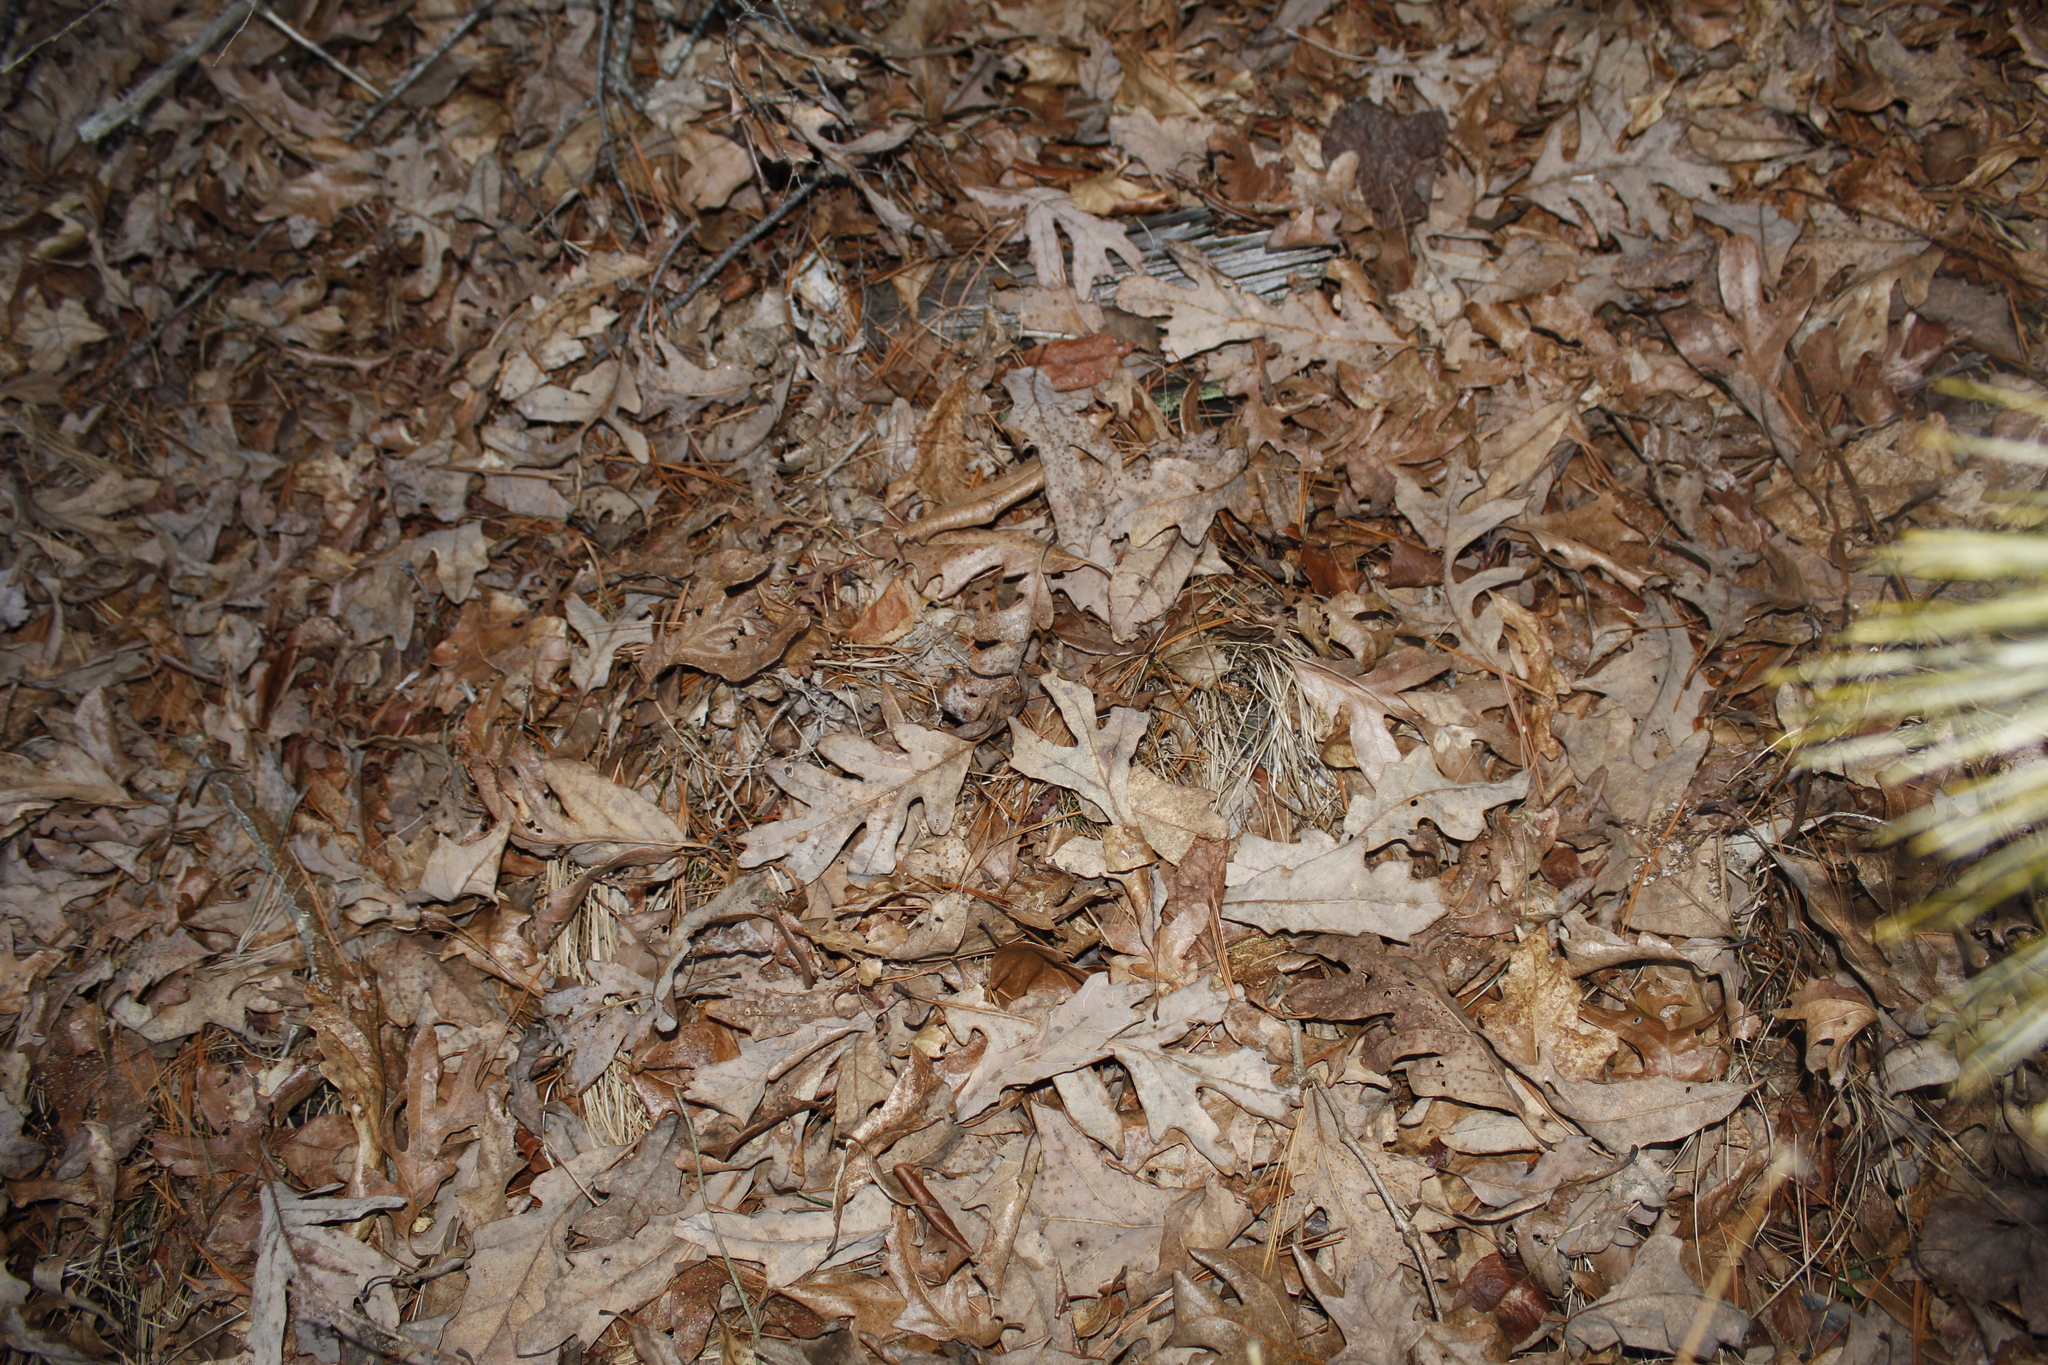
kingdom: Plantae
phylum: Tracheophyta
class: Magnoliopsida
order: Fagales
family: Fagaceae
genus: Quercus
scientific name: Quercus alba
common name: White oak
